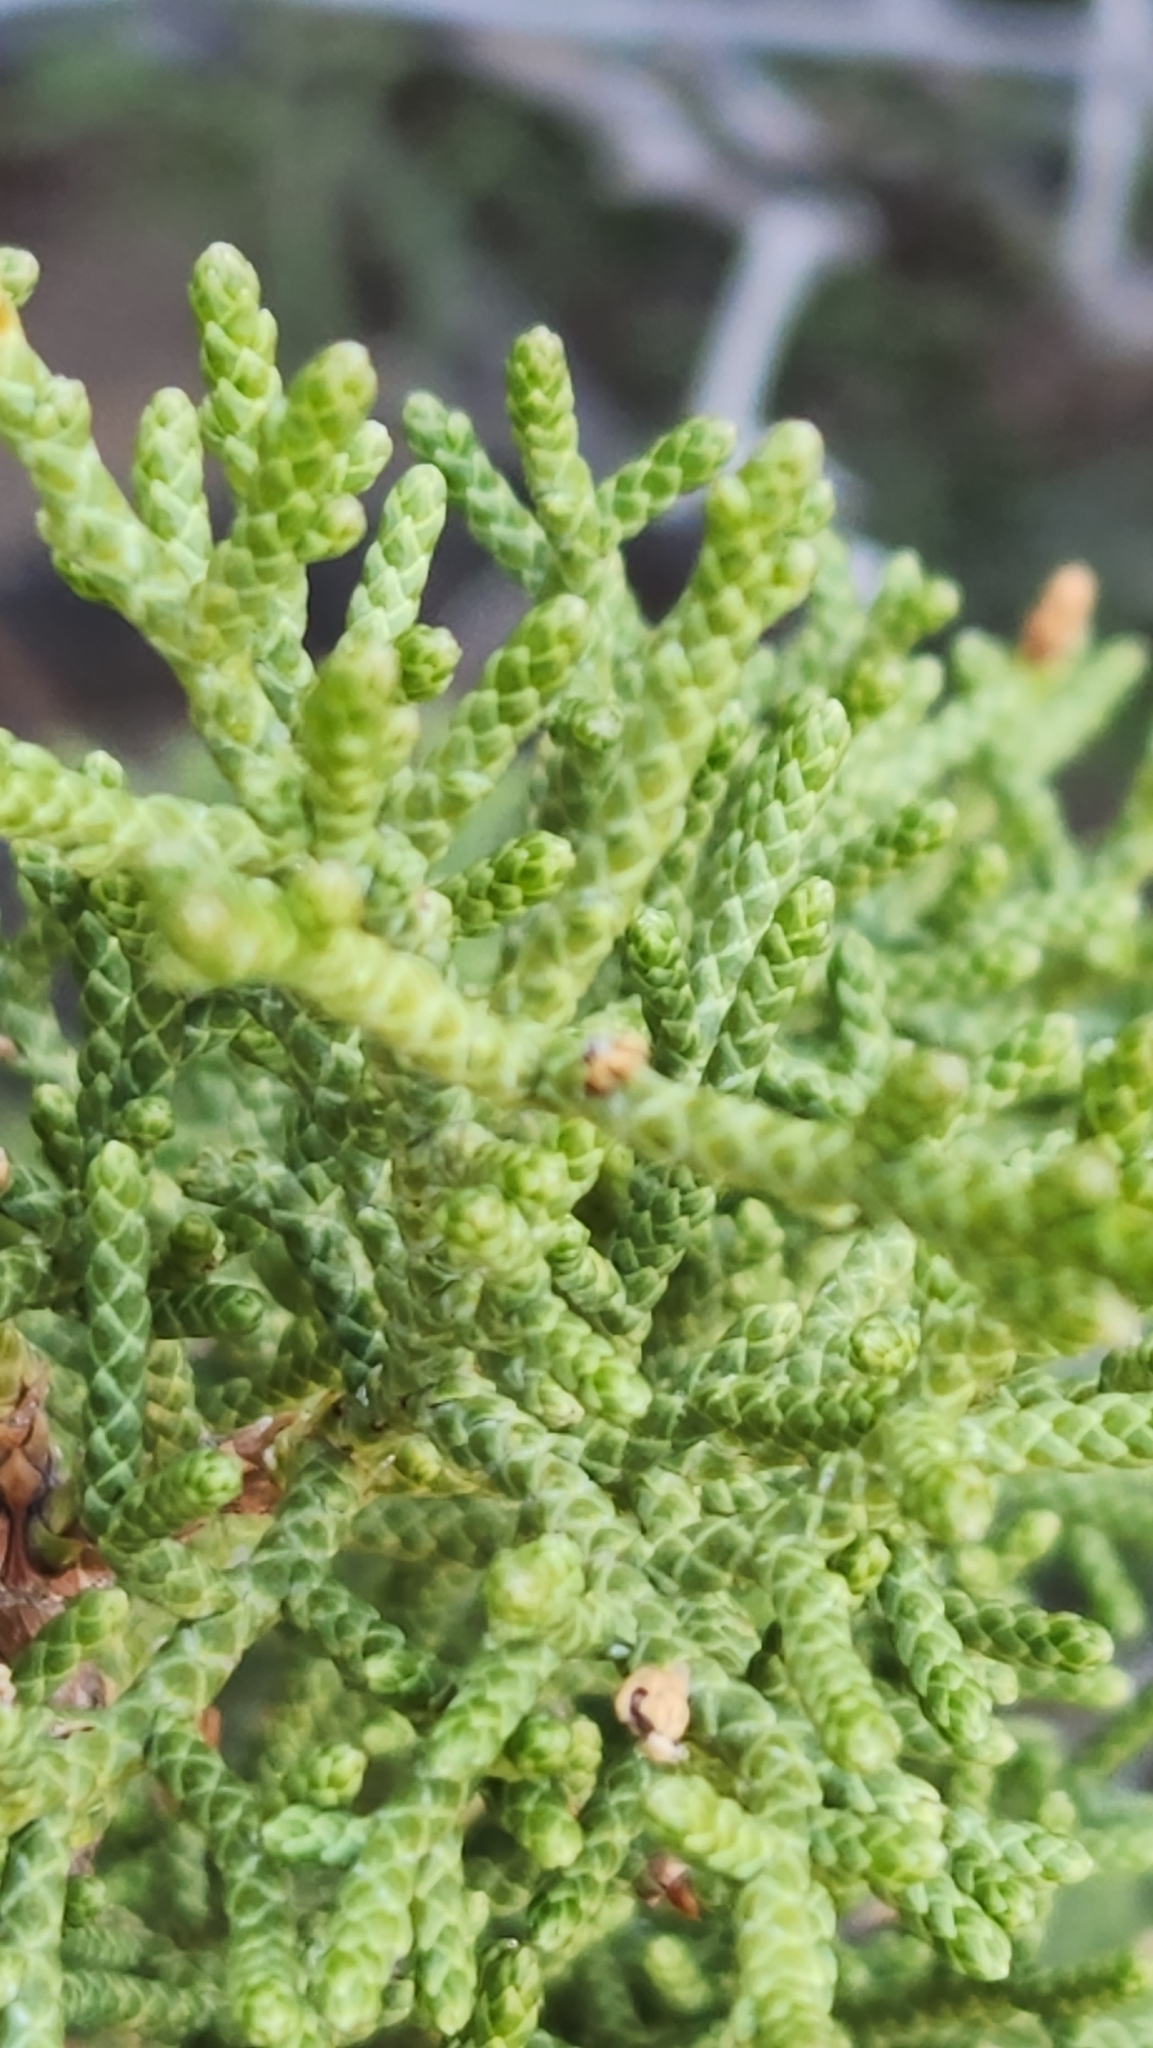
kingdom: Plantae
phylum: Tracheophyta
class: Pinopsida
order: Pinales
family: Cupressaceae
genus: Juniperus
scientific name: Juniperus californica
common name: California juniper
